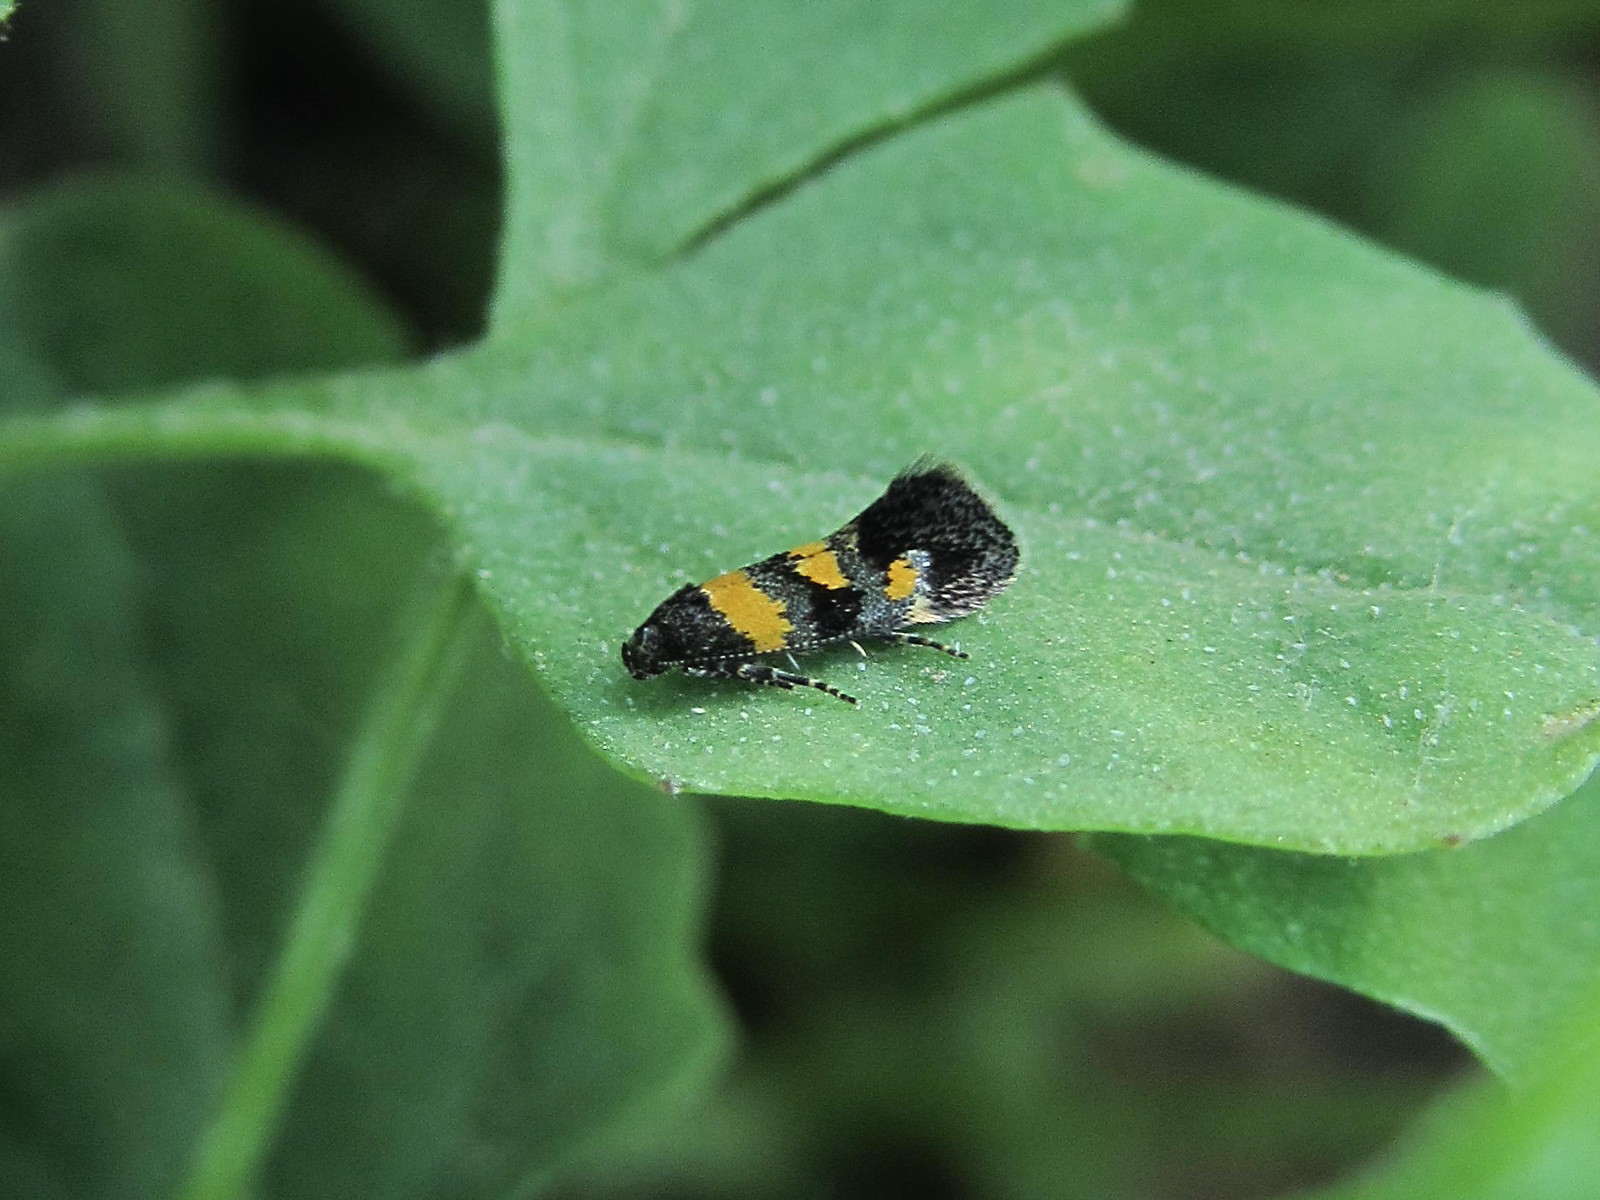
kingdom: Animalia
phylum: Arthropoda
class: Insecta
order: Lepidoptera
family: Gelechiidae
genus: Chrysoesthia
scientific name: Chrysoesthia sexguttella
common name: Moth
